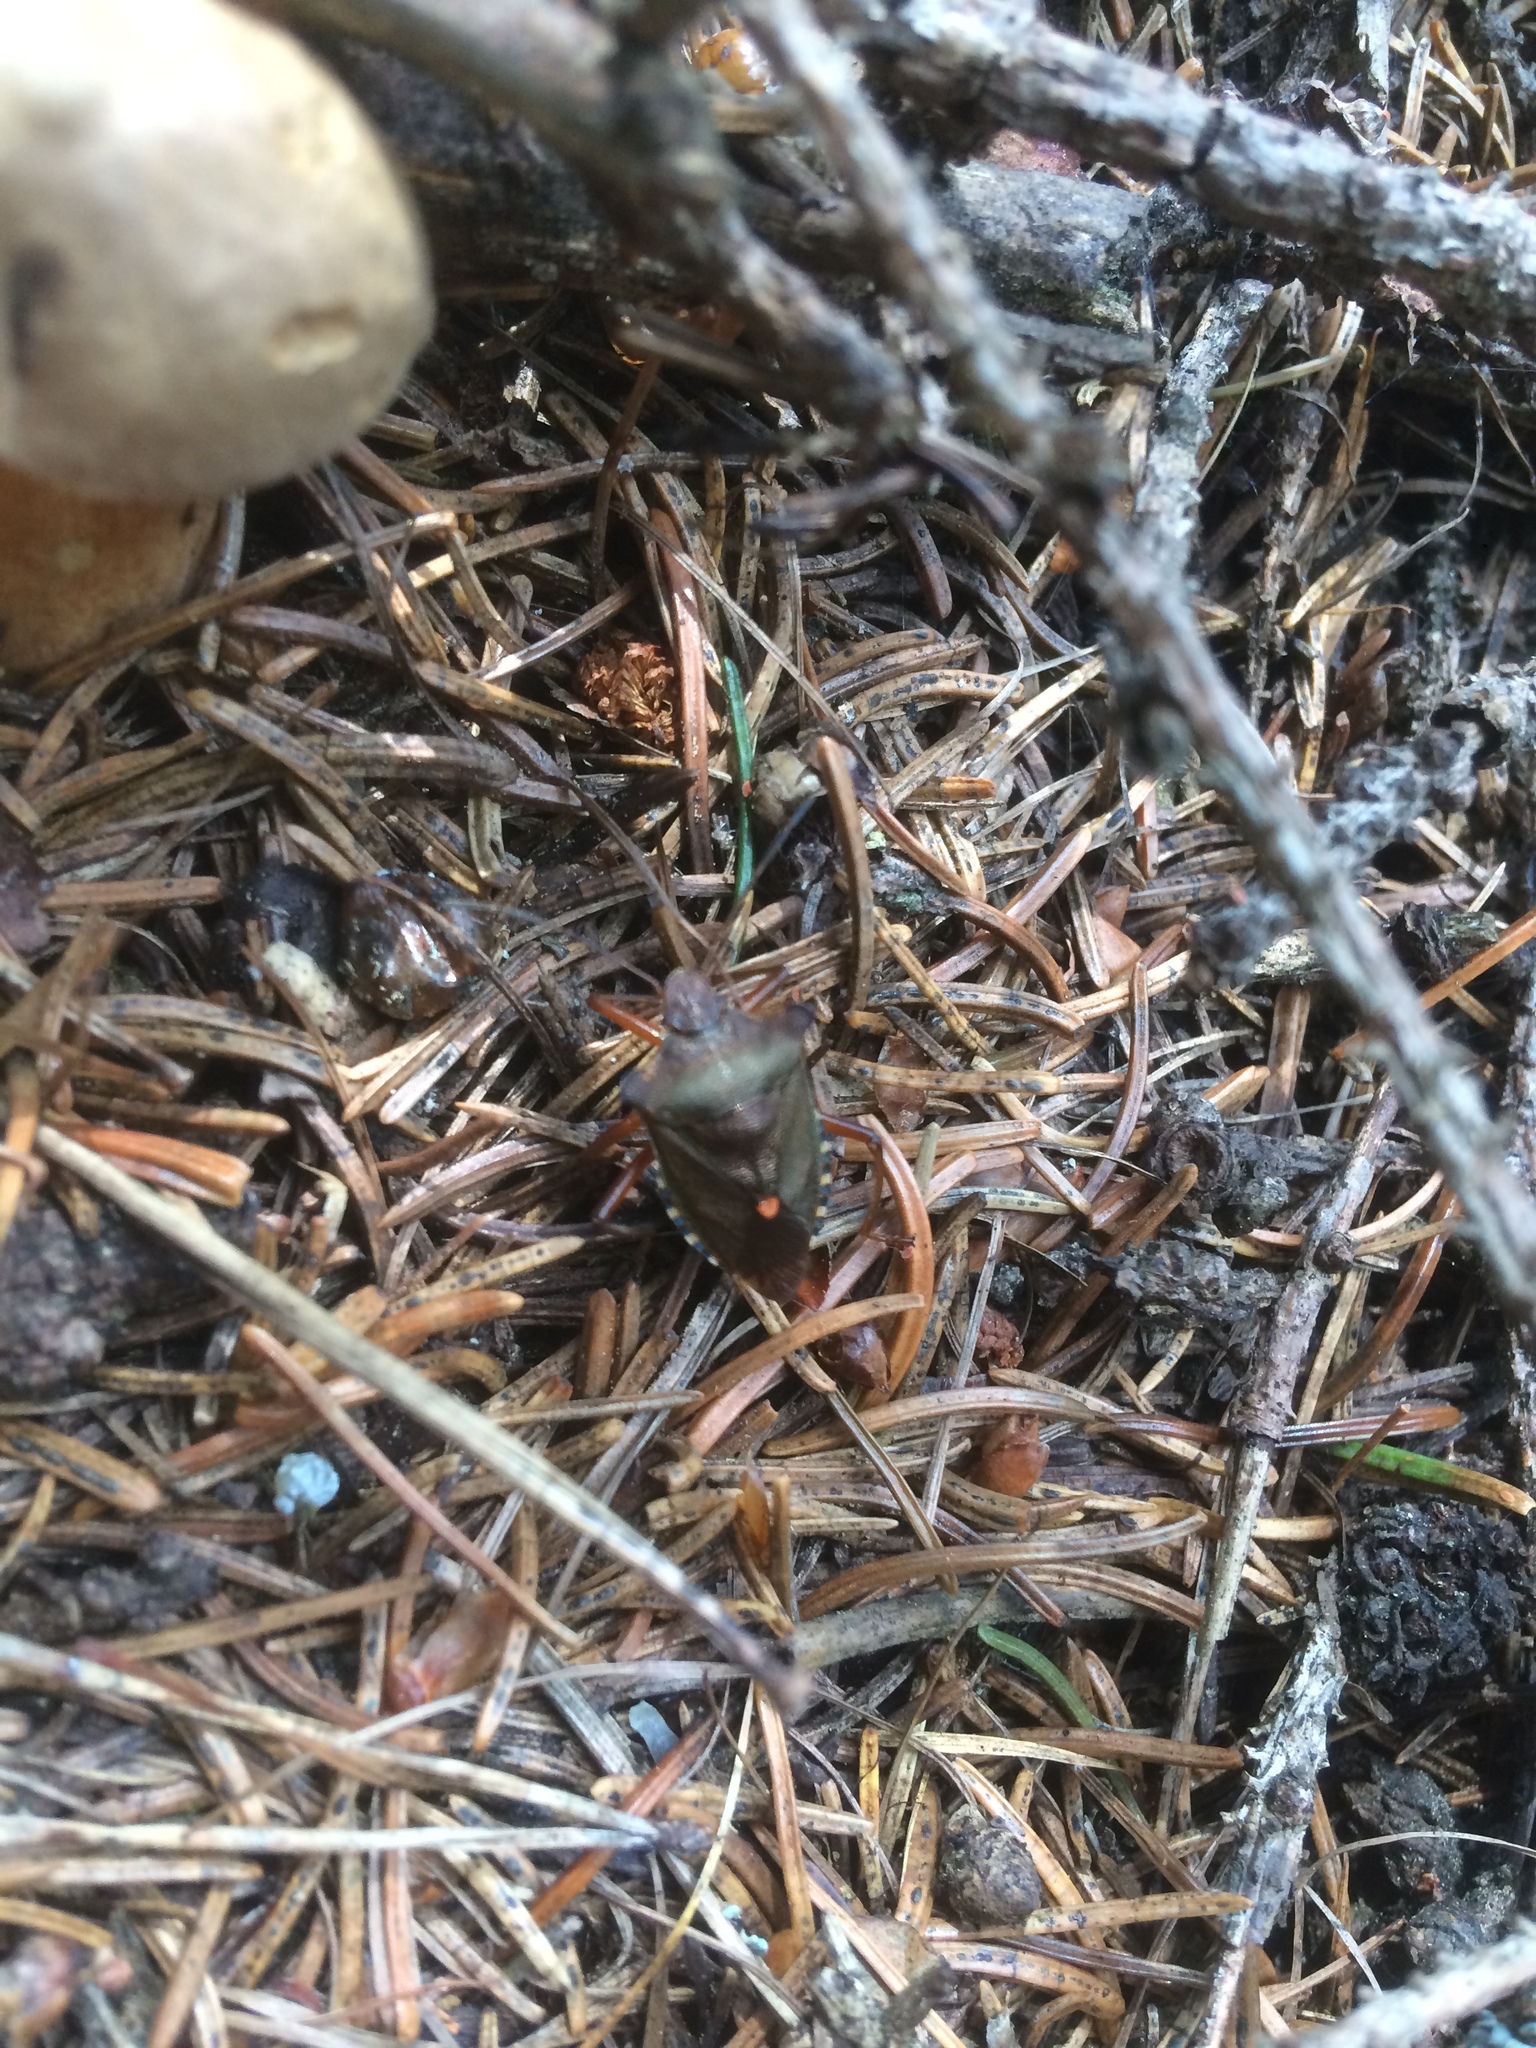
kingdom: Animalia
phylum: Arthropoda
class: Insecta
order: Hemiptera
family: Pentatomidae
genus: Pentatoma
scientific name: Pentatoma rufipes
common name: Forest bug
